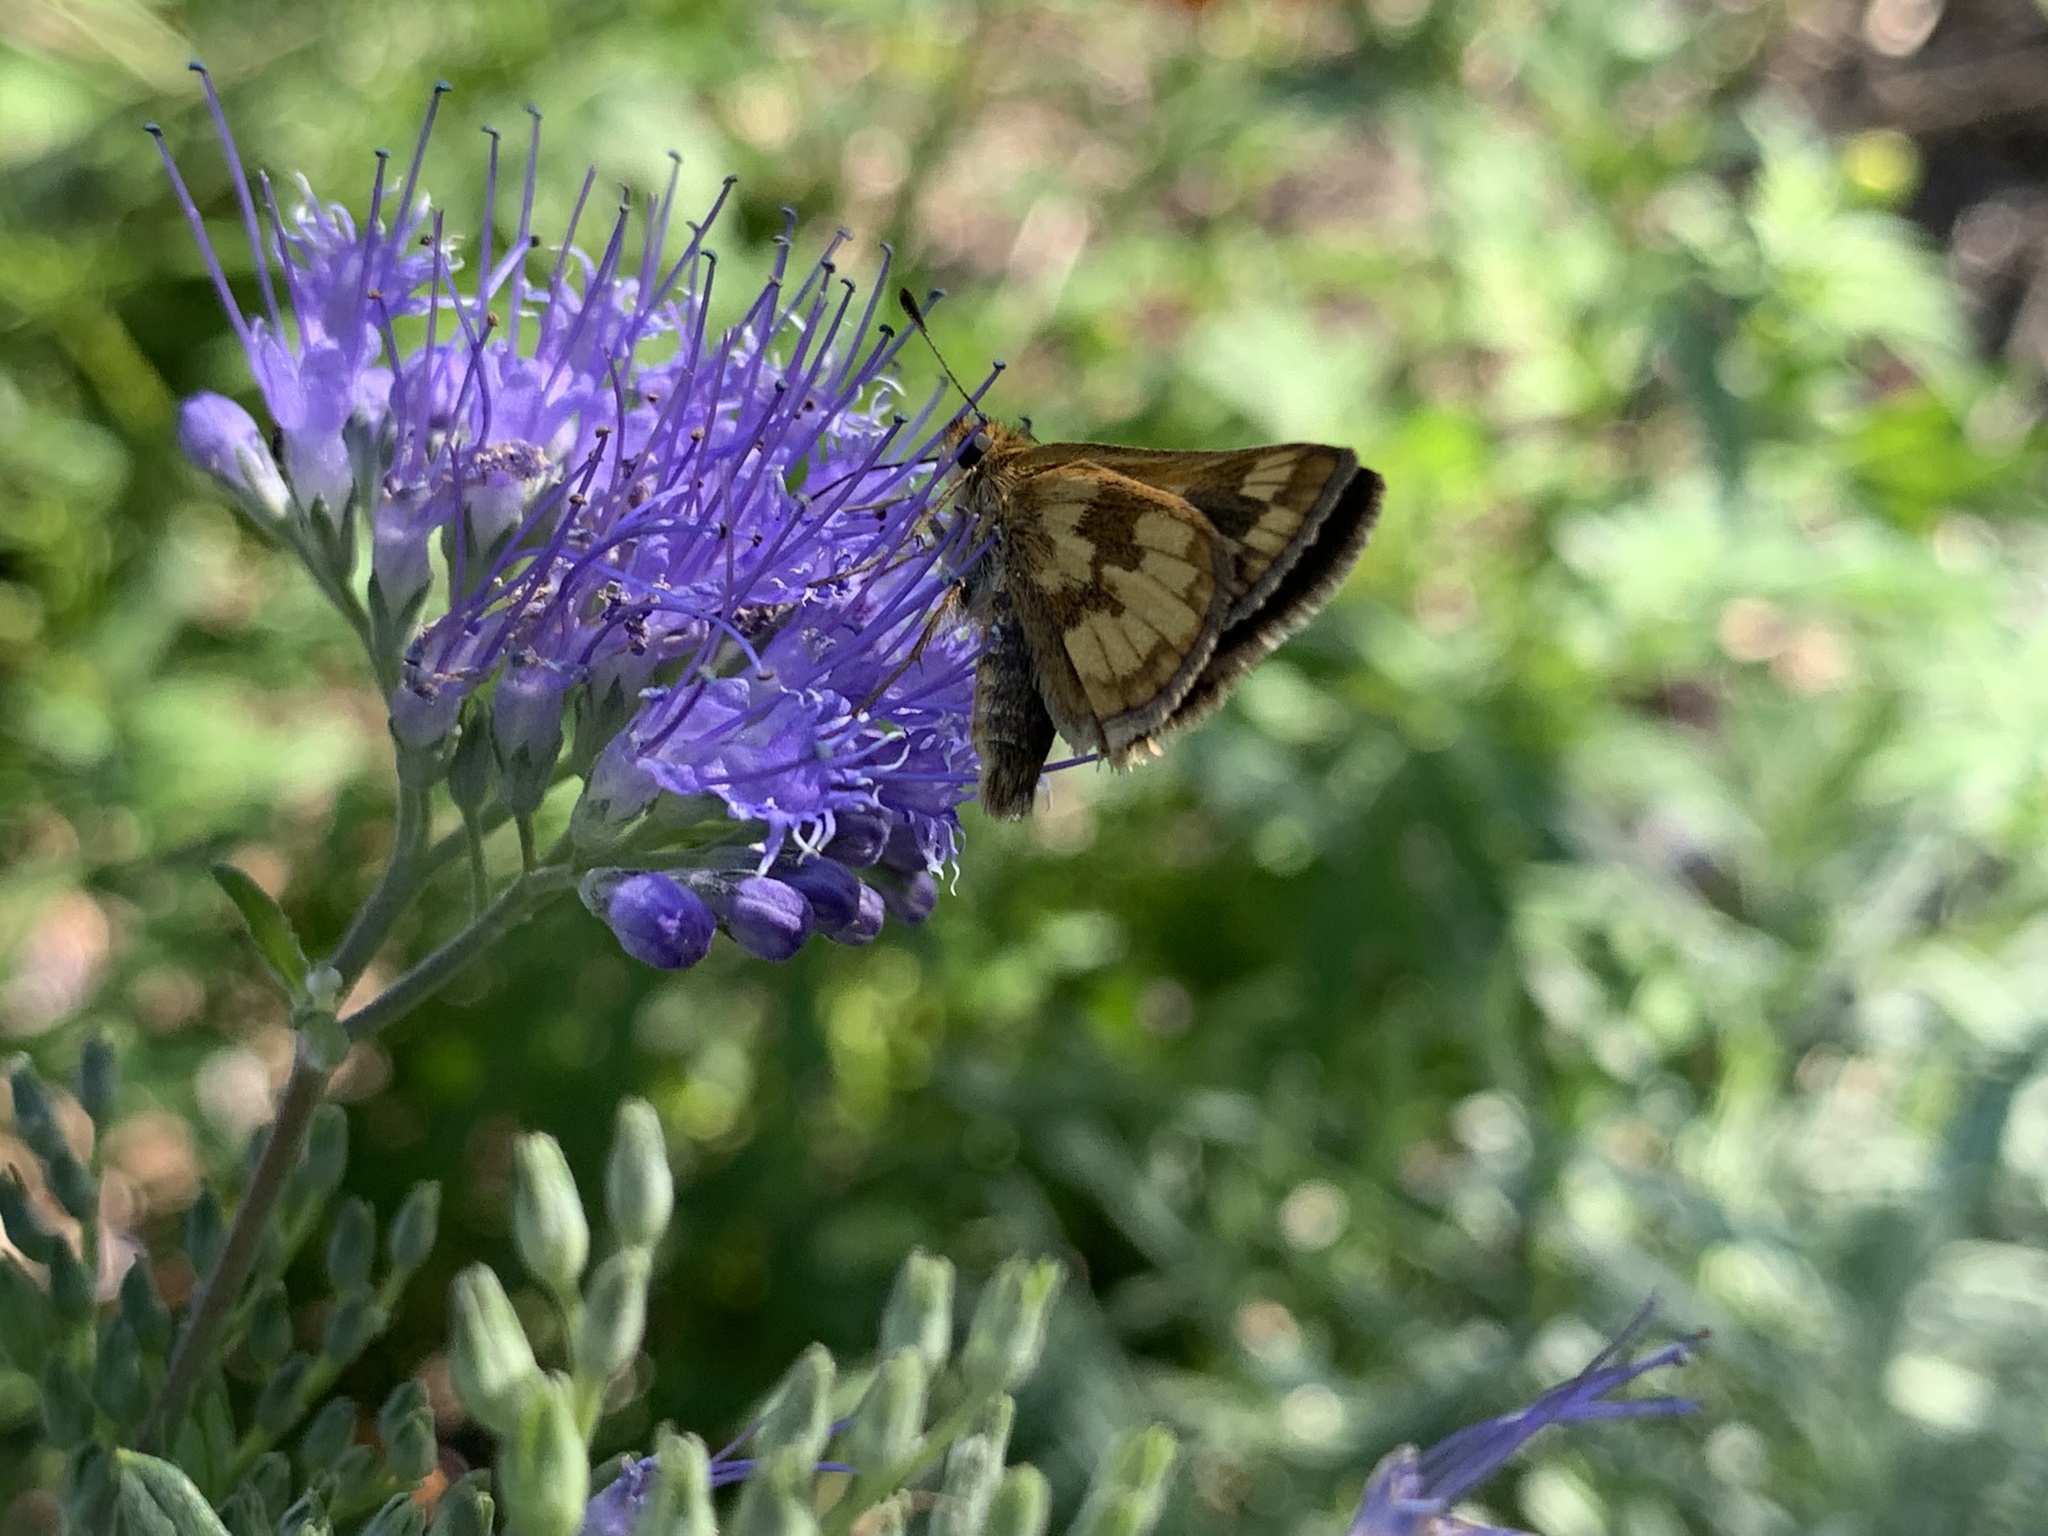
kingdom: Animalia
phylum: Arthropoda
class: Insecta
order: Lepidoptera
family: Hesperiidae
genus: Polites
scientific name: Polites coras
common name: Peck's skipper
